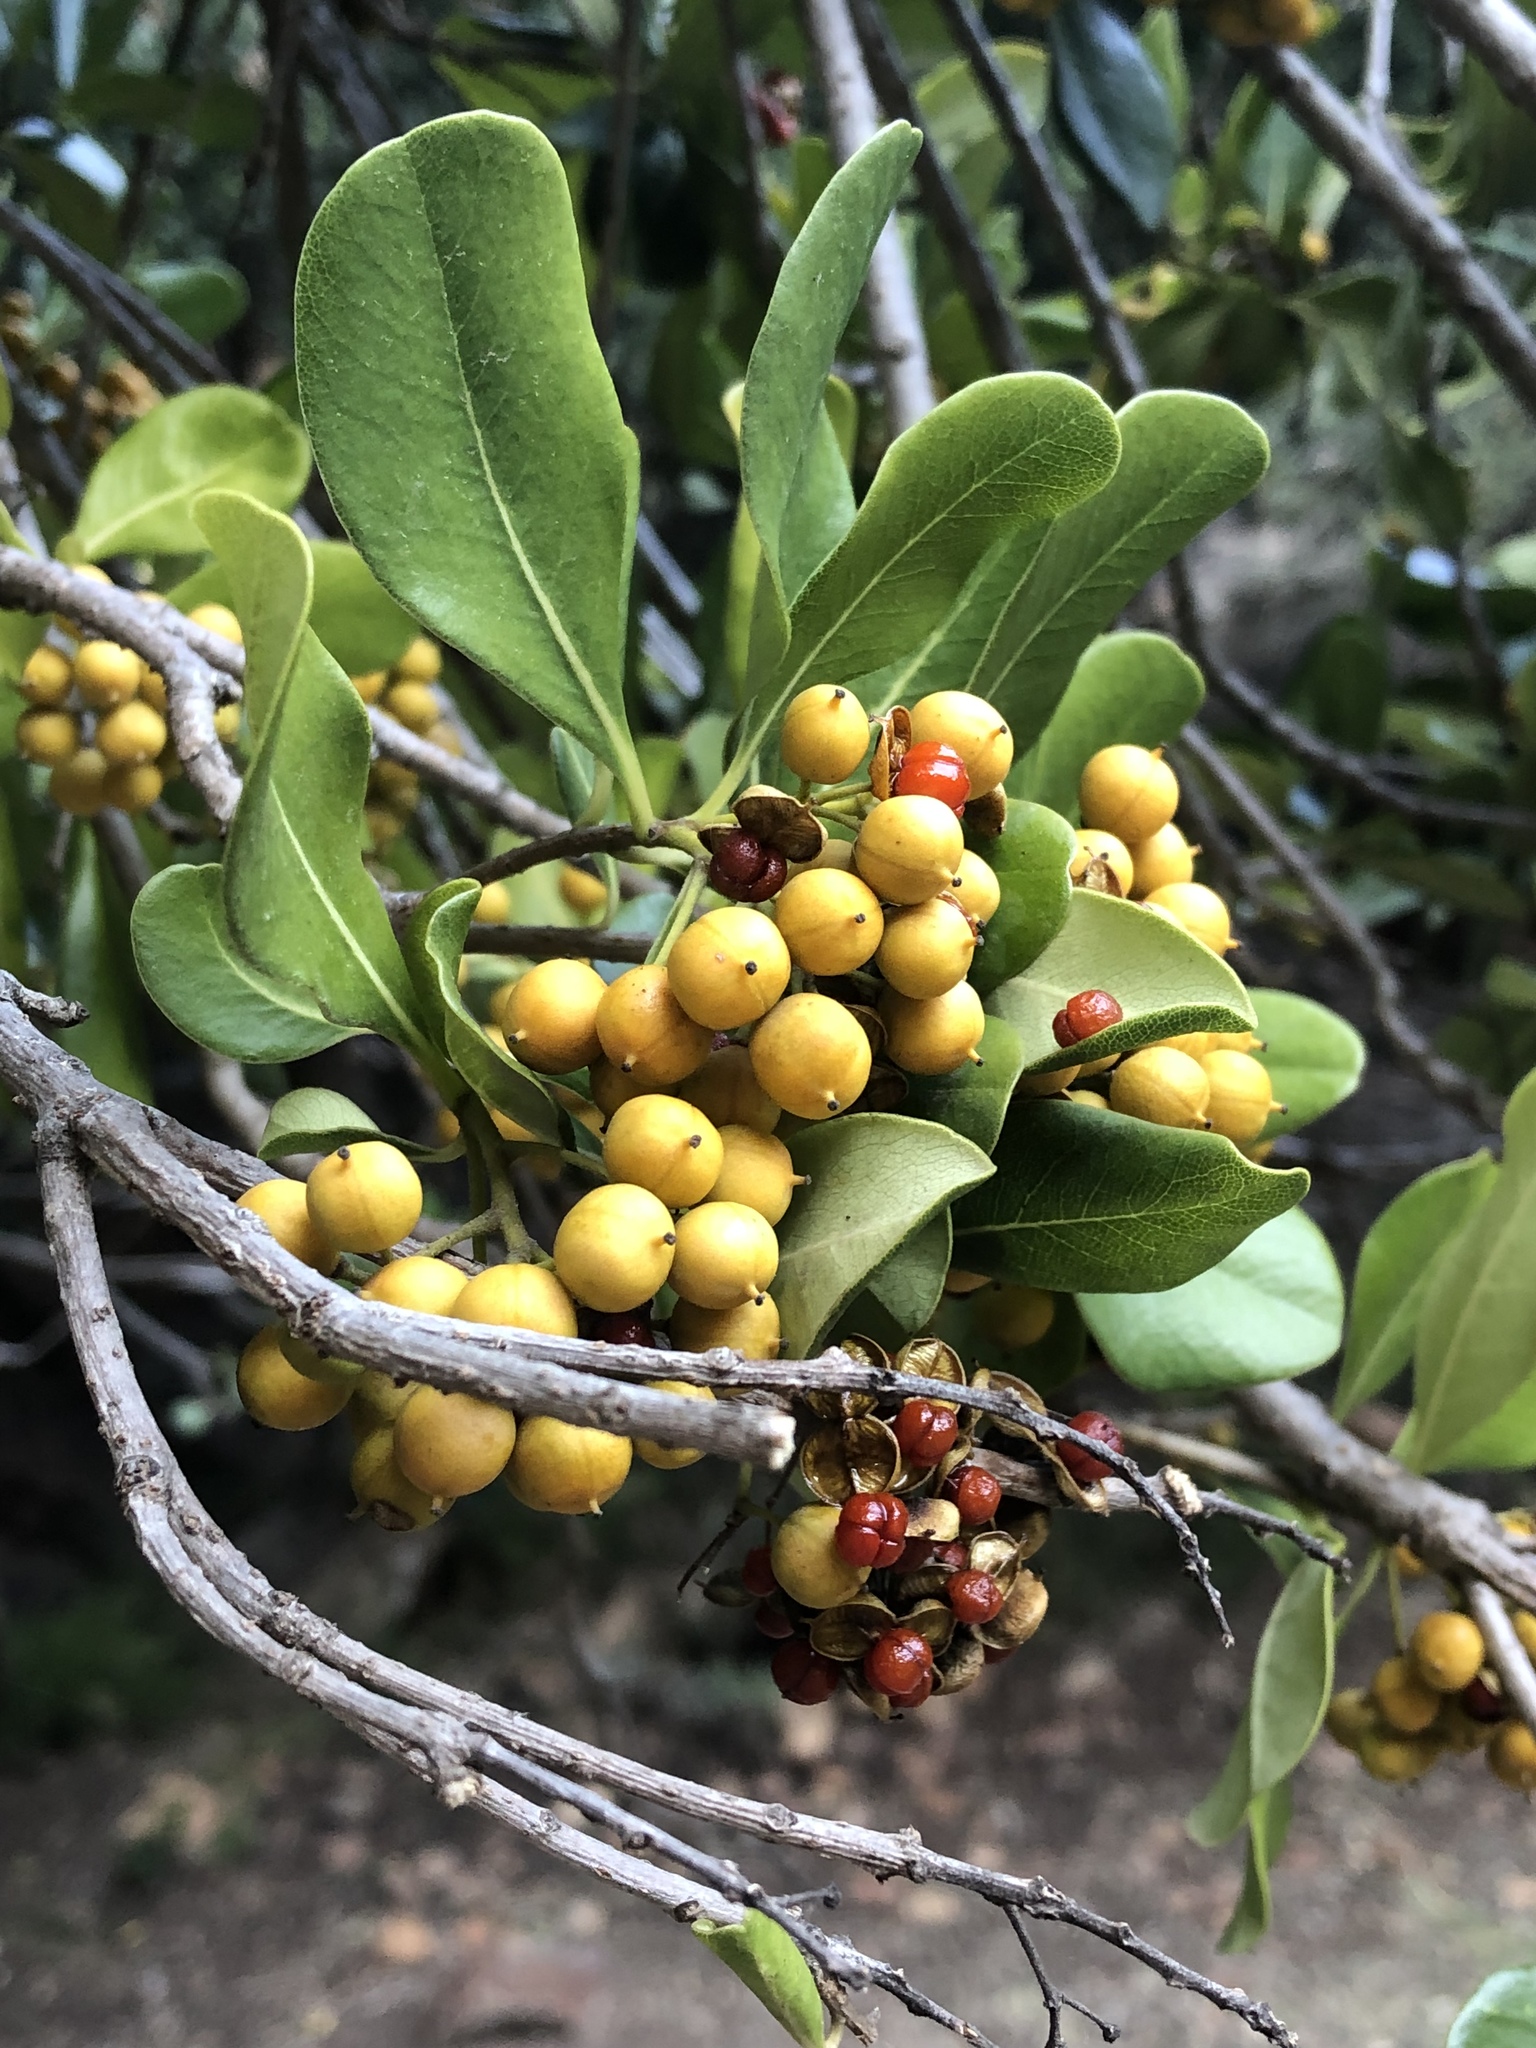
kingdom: Plantae
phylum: Tracheophyta
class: Magnoliopsida
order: Apiales
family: Pittosporaceae
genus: Pittosporum
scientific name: Pittosporum viridiflorum
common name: Cape cheesewood
